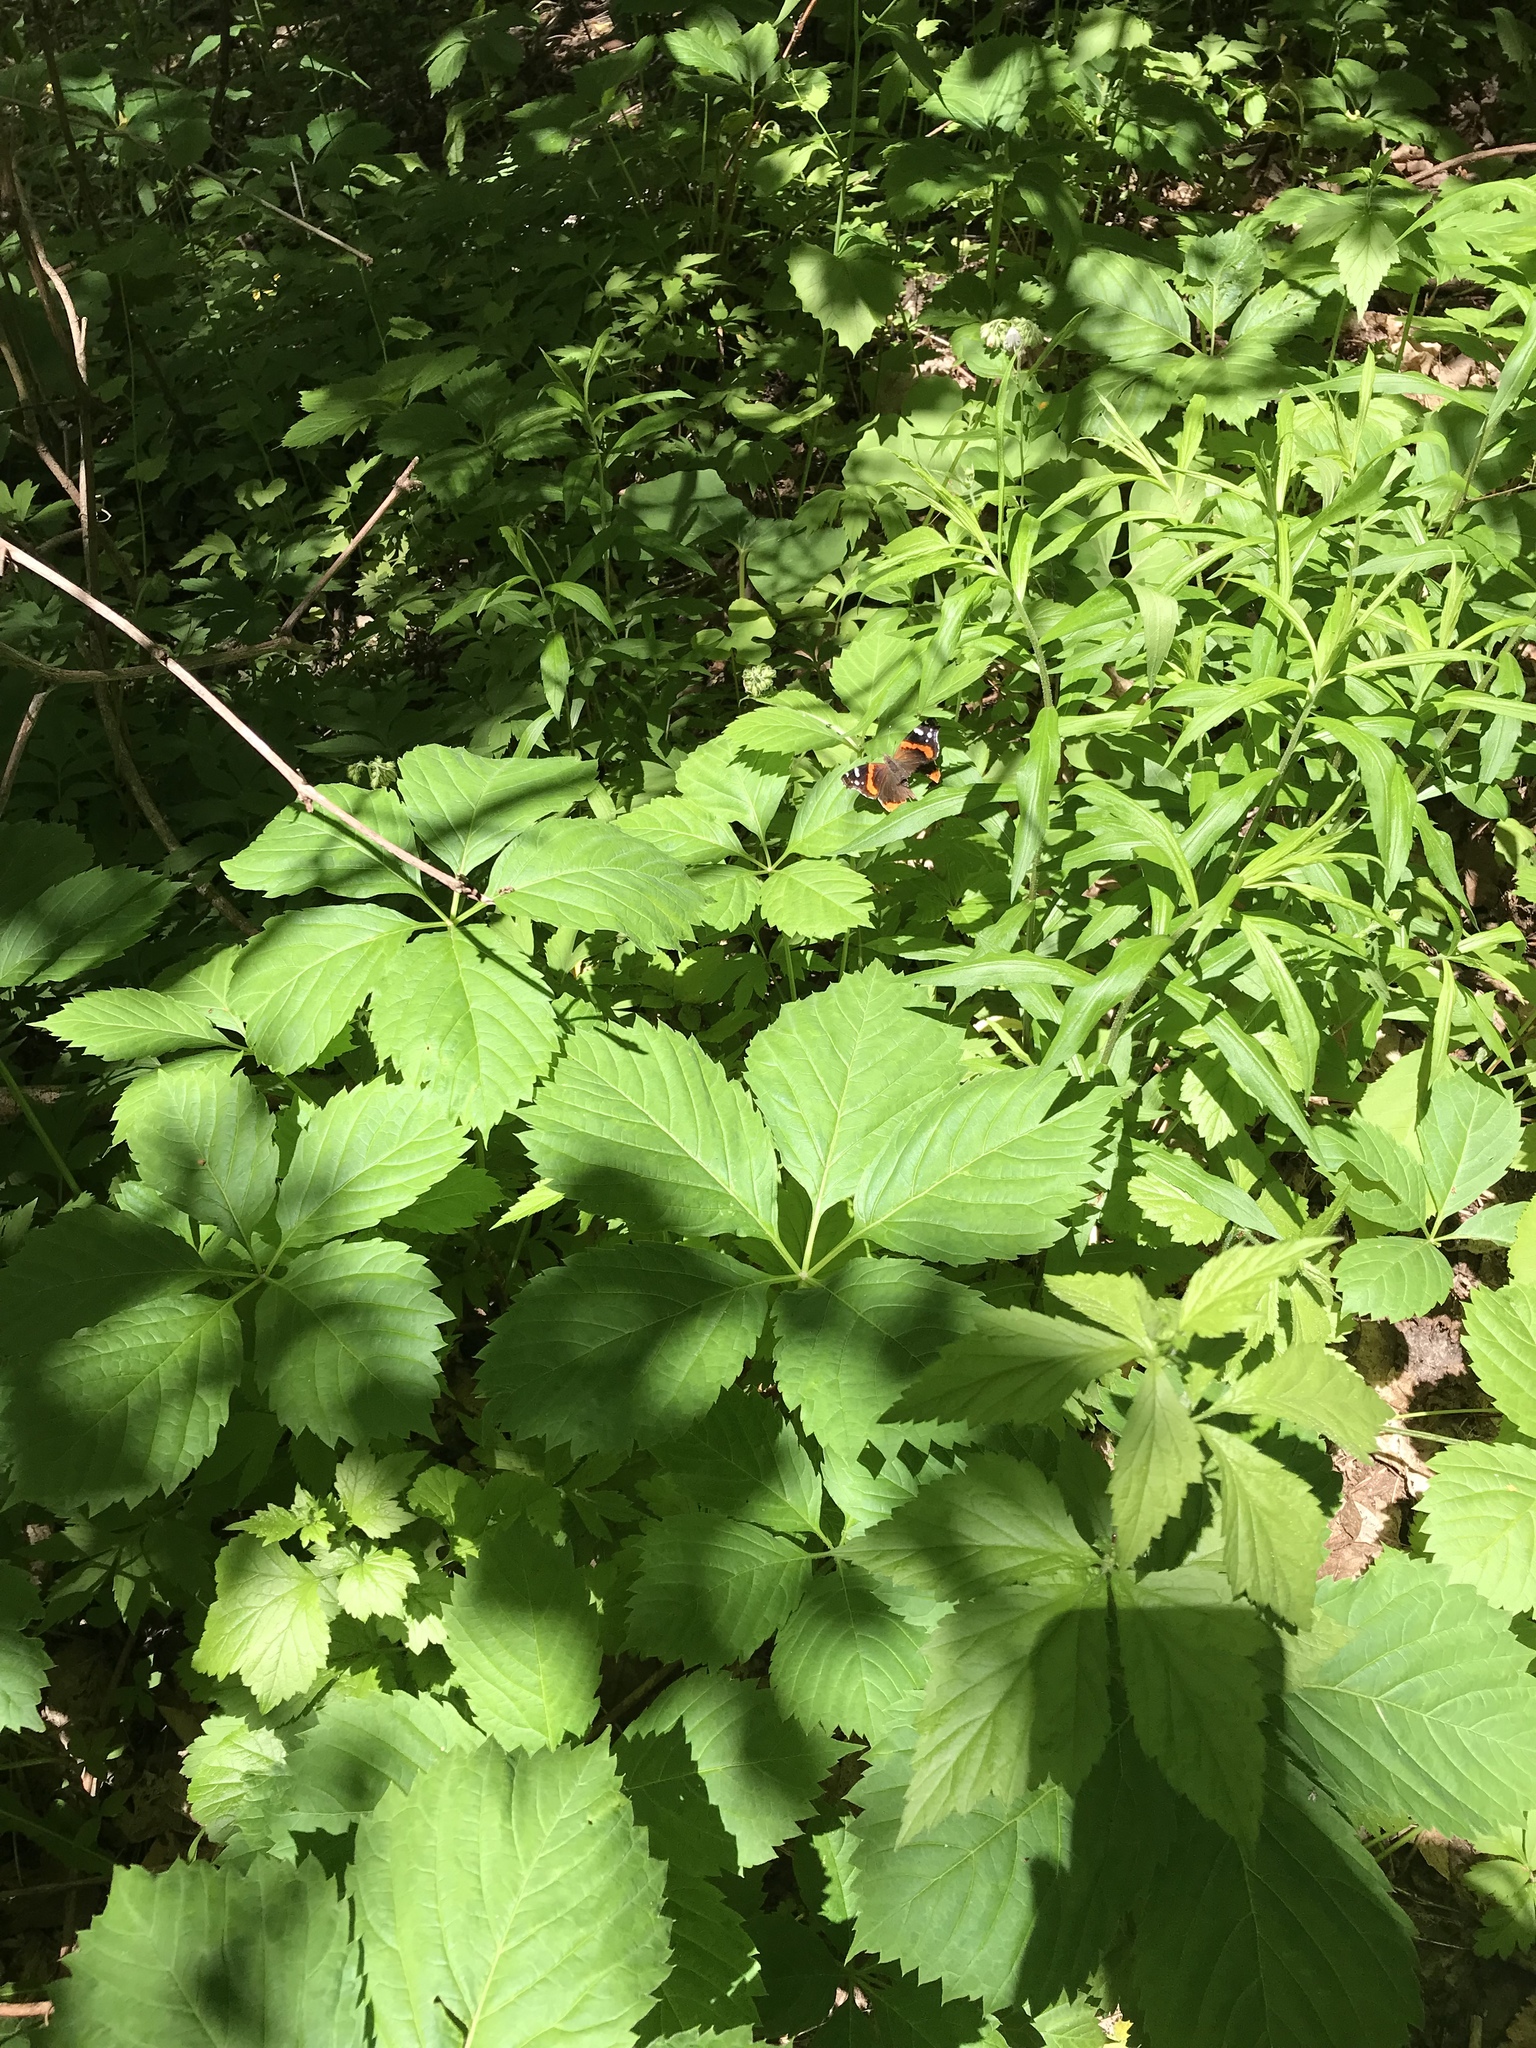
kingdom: Animalia
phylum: Arthropoda
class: Insecta
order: Lepidoptera
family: Nymphalidae
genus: Vanessa
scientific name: Vanessa atalanta
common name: Red admiral
